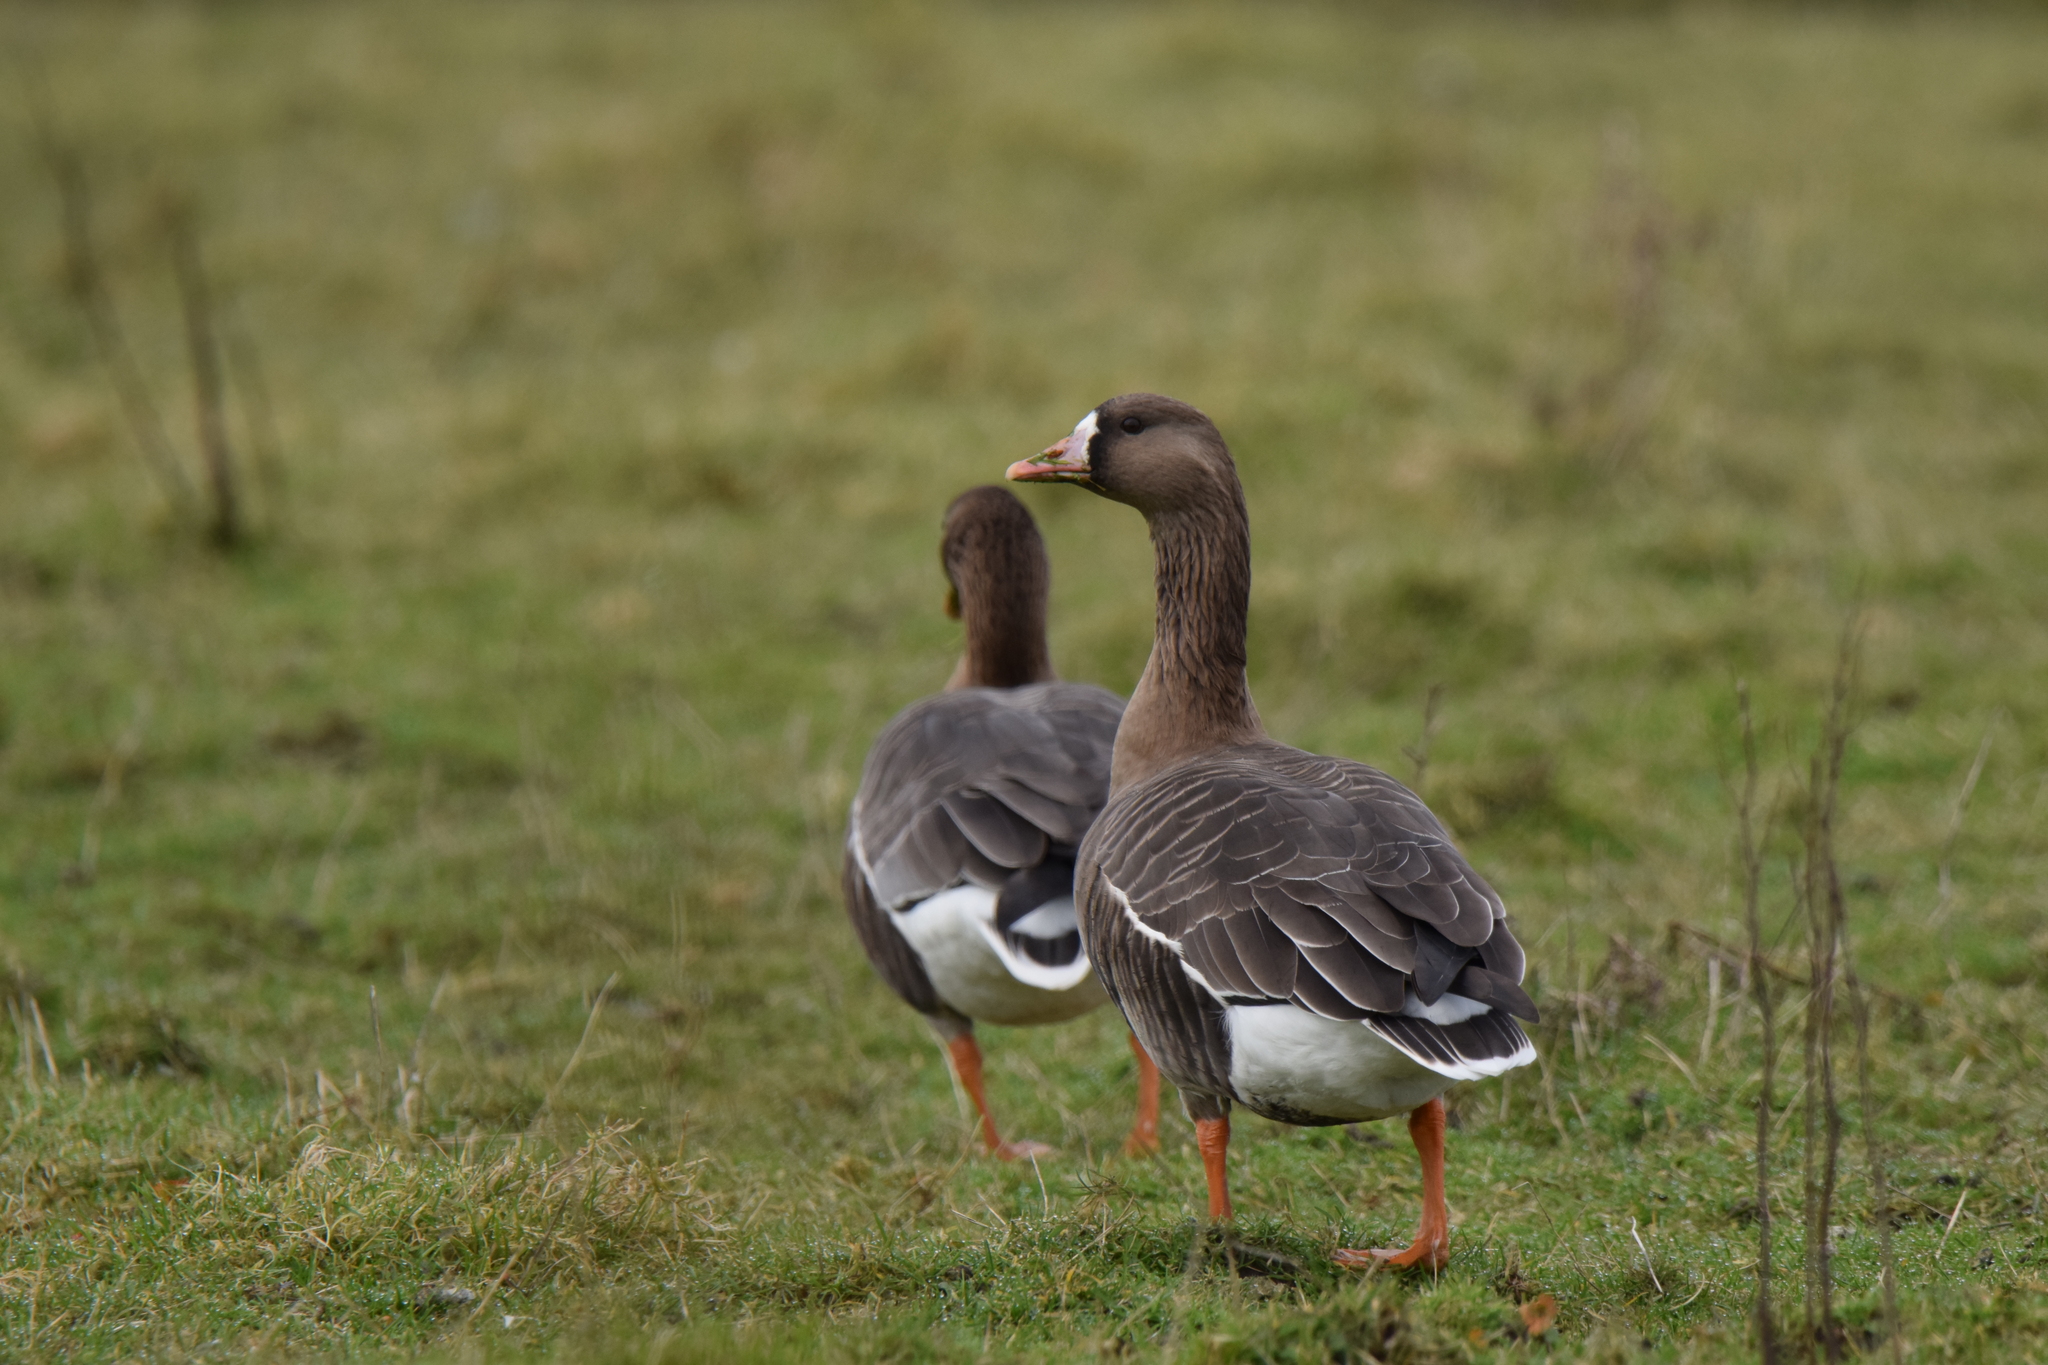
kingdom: Animalia
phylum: Chordata
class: Aves
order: Anseriformes
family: Anatidae
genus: Anser
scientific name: Anser albifrons
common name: Greater white-fronted goose
